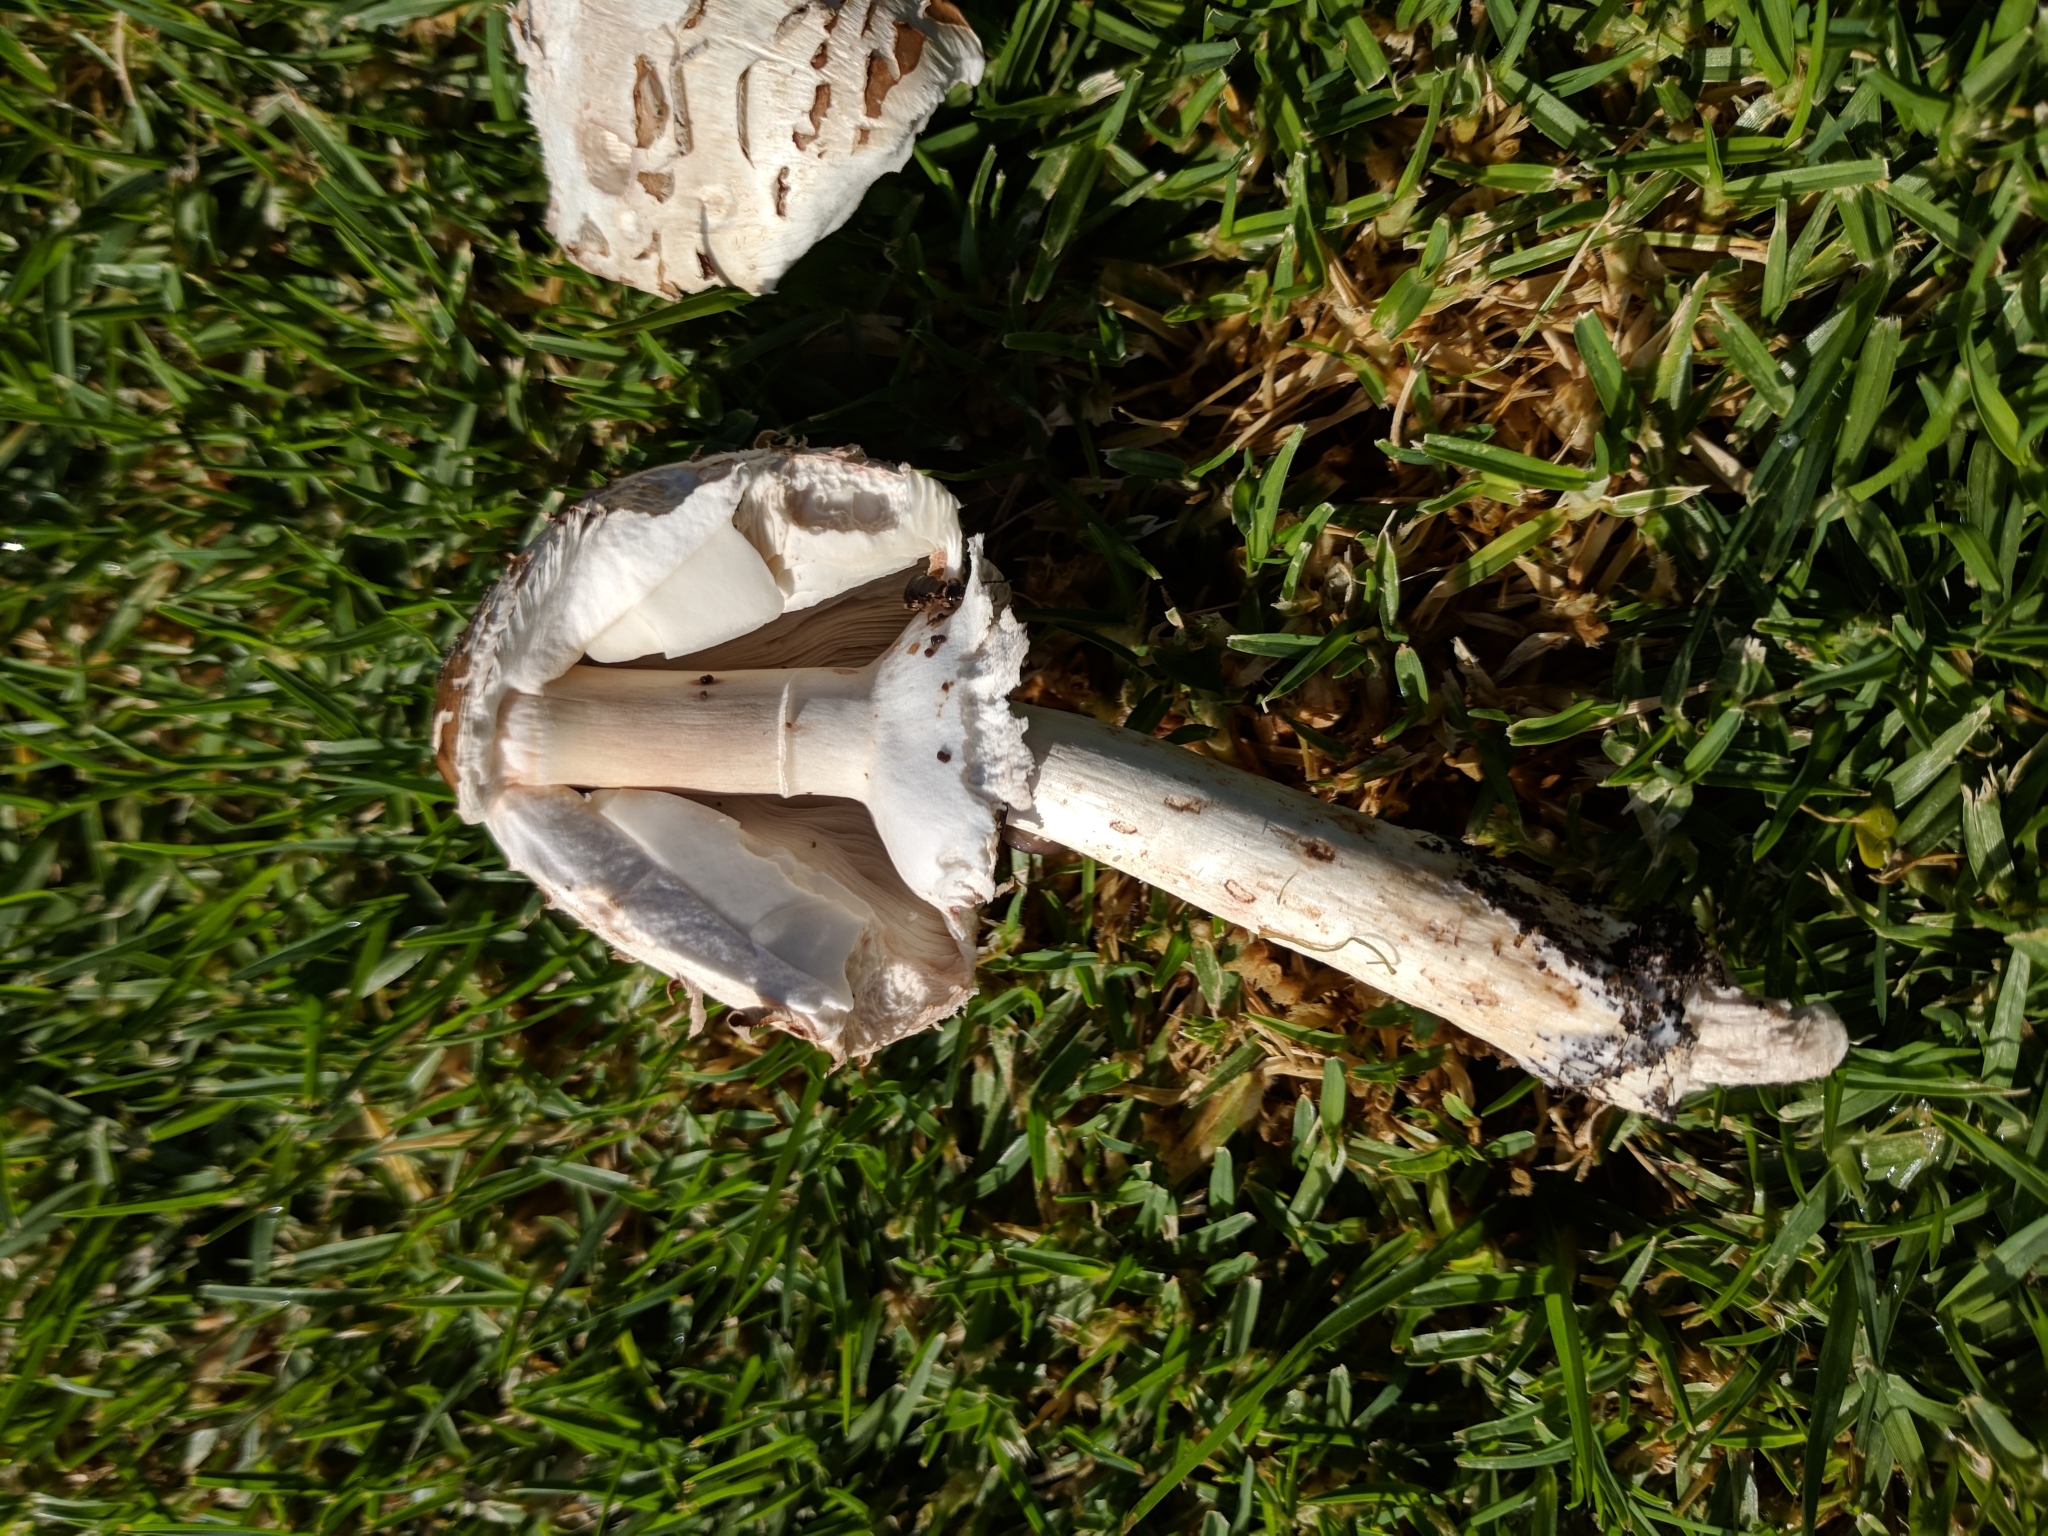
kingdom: Fungi
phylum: Basidiomycota
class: Agaricomycetes
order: Agaricales
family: Agaricaceae
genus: Chlorophyllum
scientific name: Chlorophyllum molybdites
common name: False parasol
